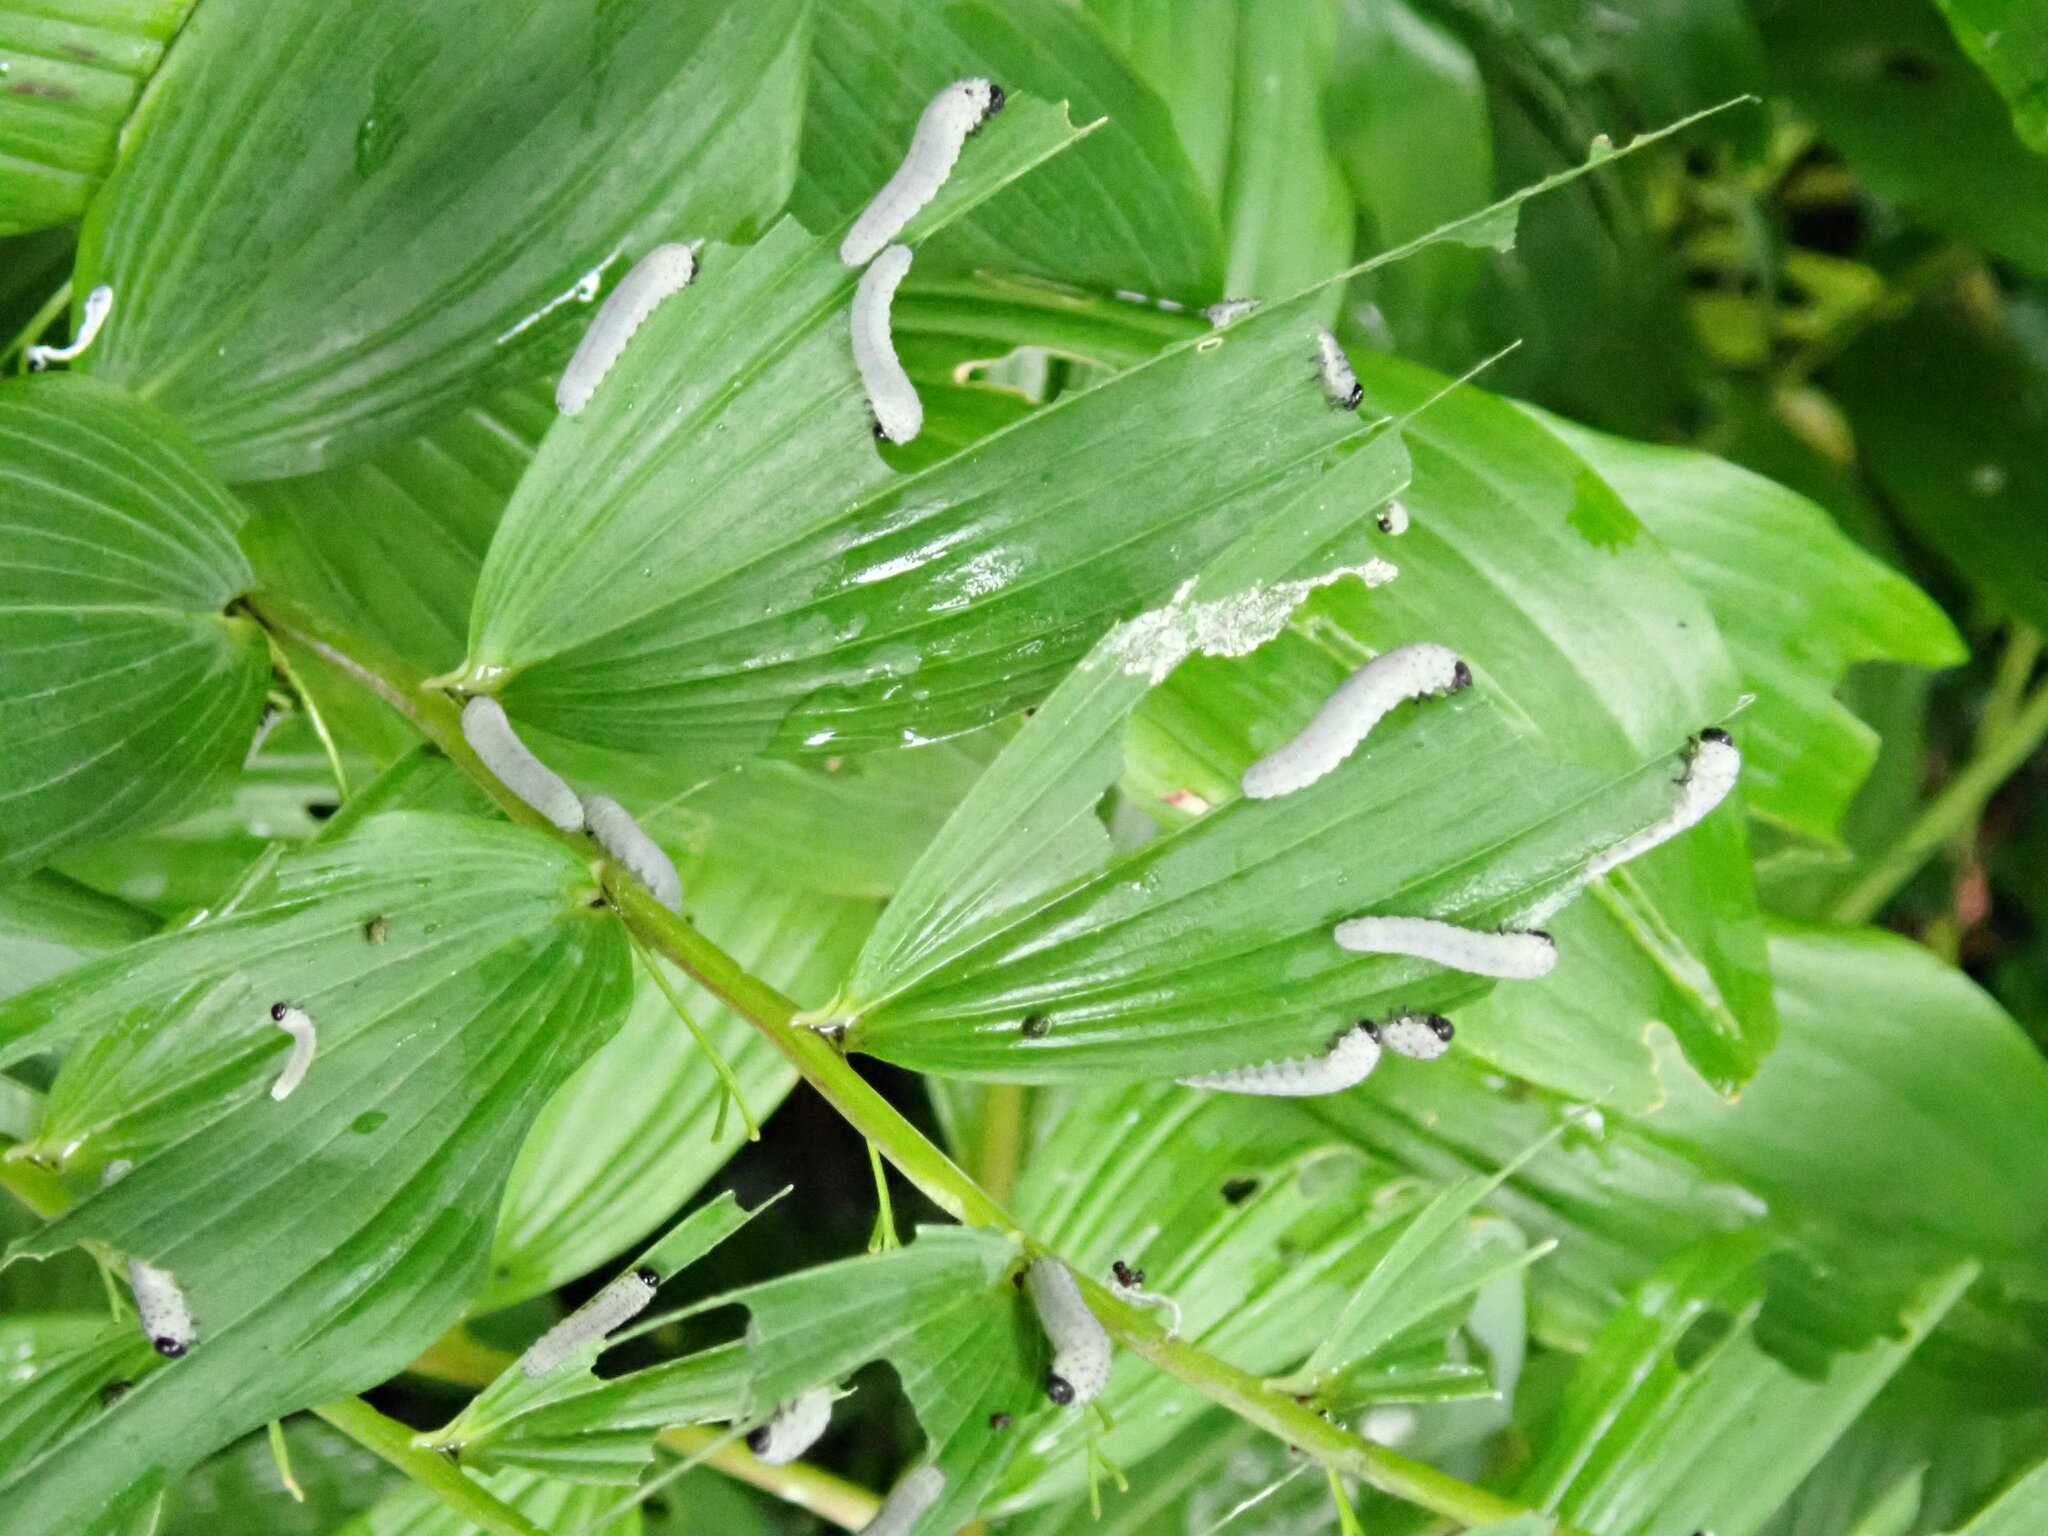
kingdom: Animalia
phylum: Arthropoda
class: Insecta
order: Hymenoptera
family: Tenthredinidae
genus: Phymatocera
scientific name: Phymatocera aterrima
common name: Solomon's-seal sawfly
